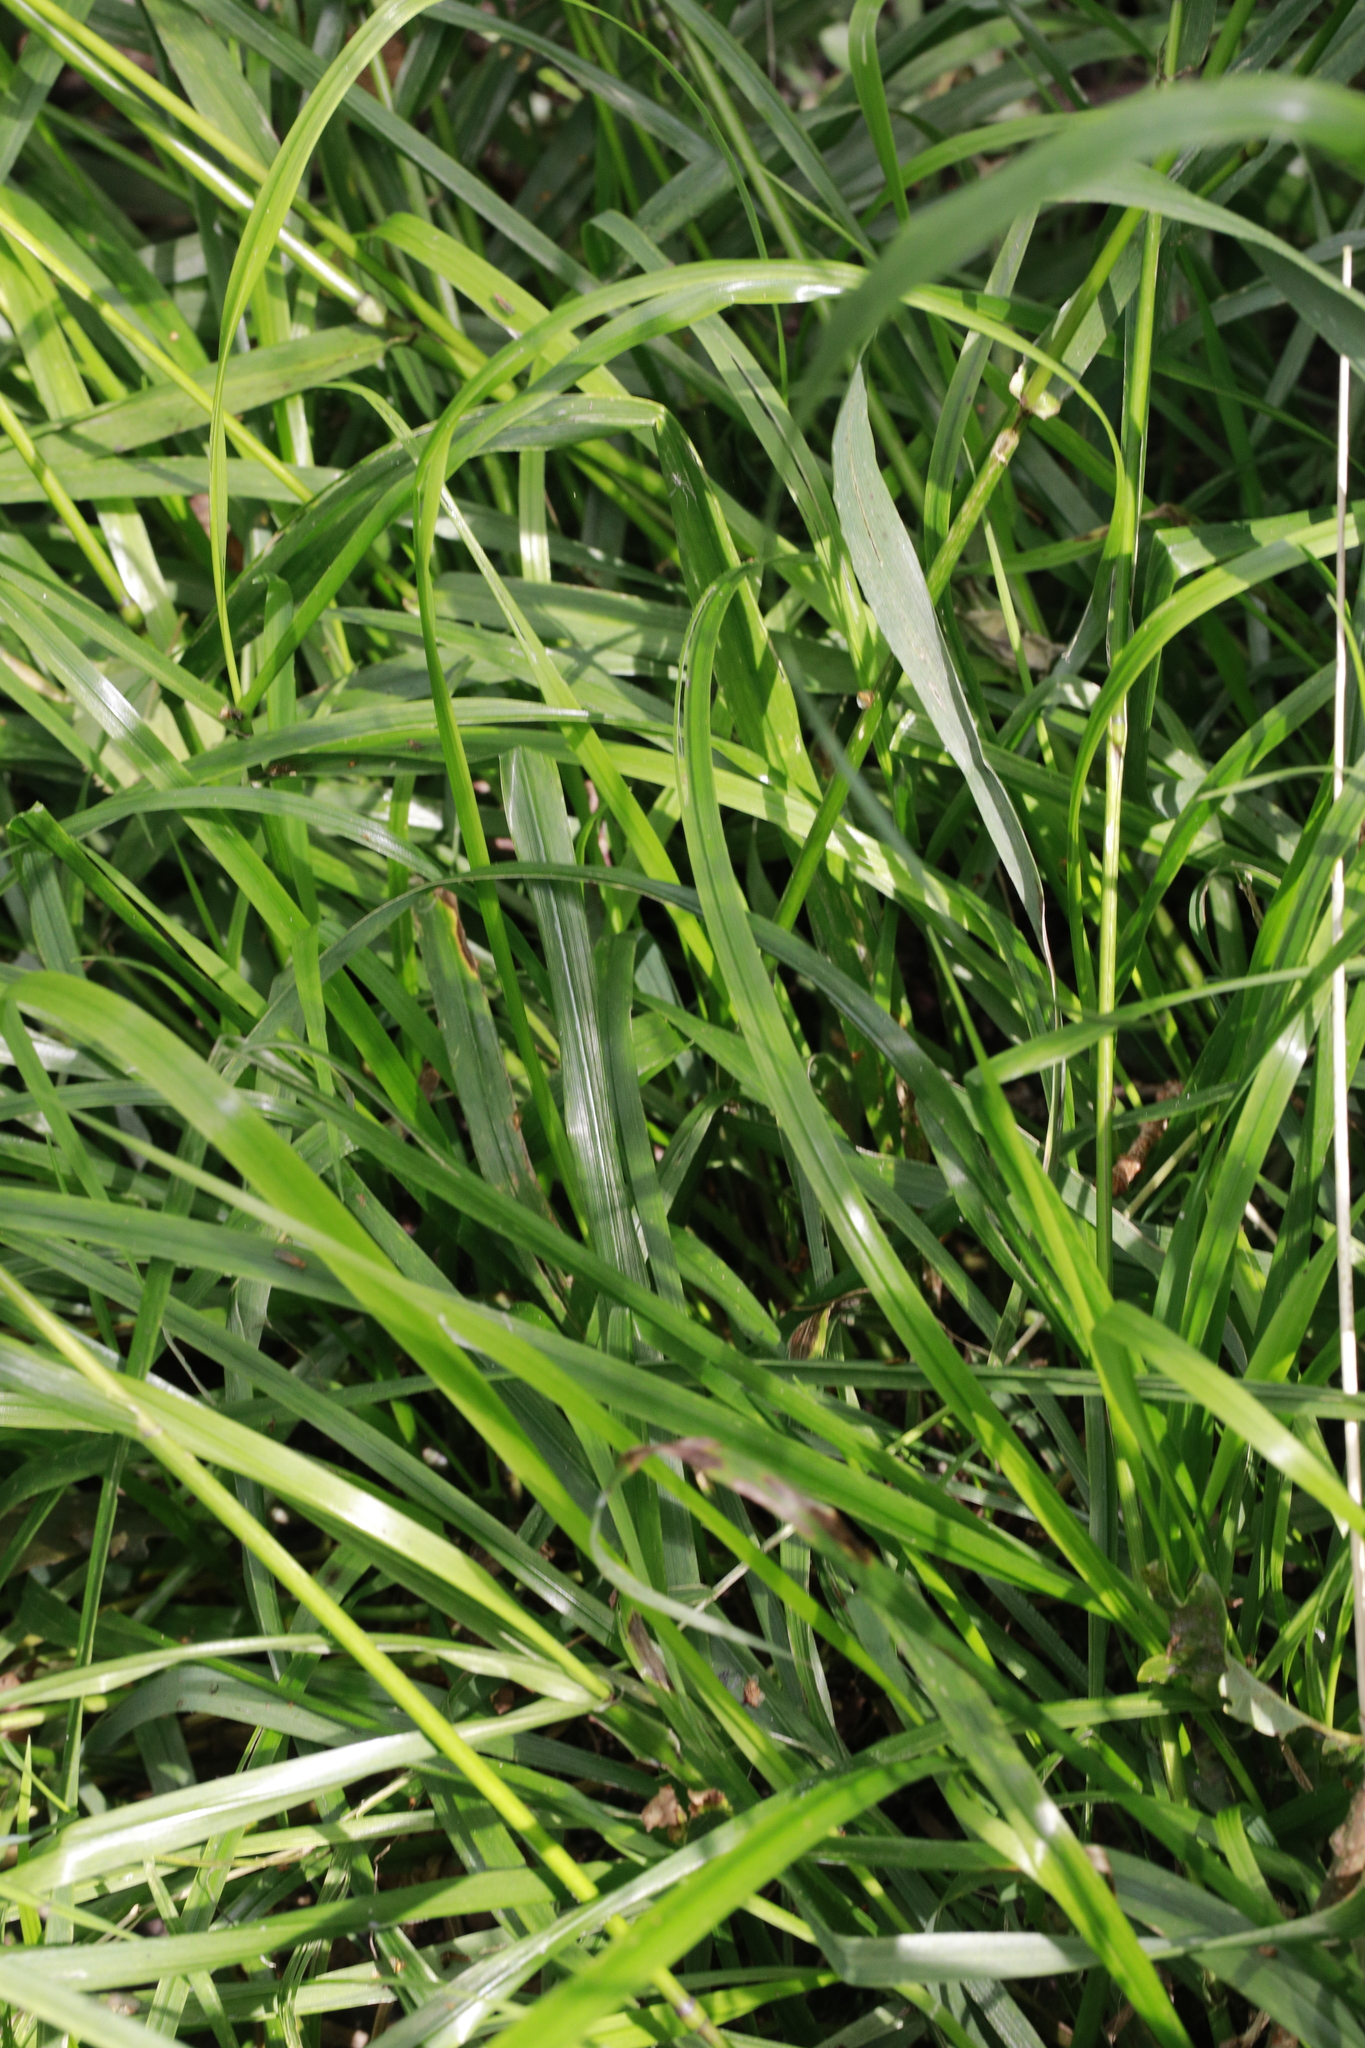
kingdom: Plantae
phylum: Tracheophyta
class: Liliopsida
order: Poales
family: Poaceae
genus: Lolium
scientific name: Lolium giganteum
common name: Giant fescue
